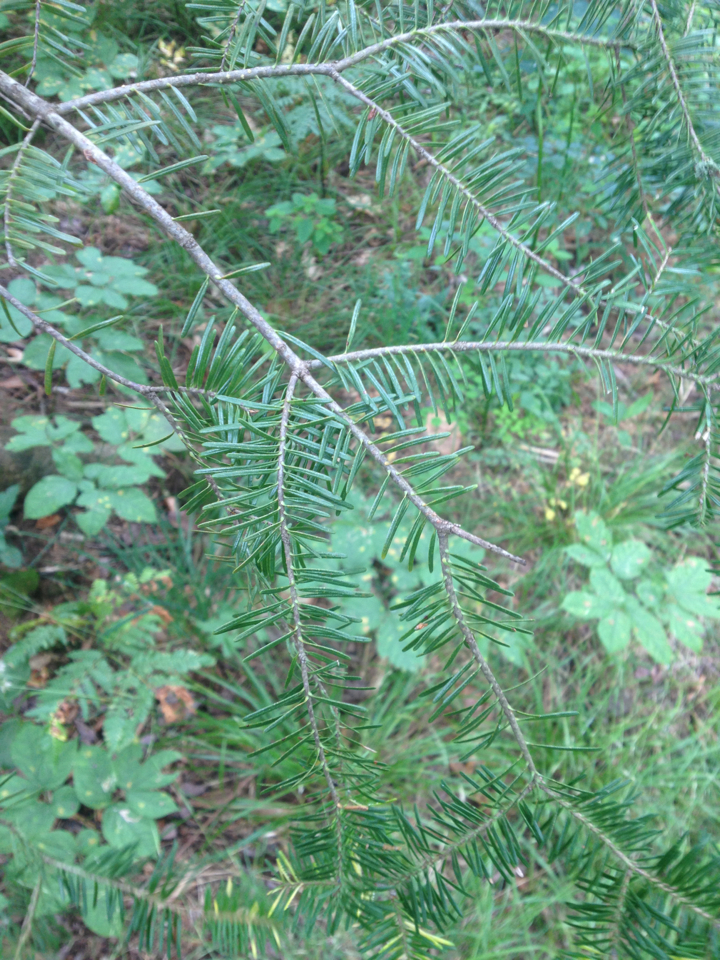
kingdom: Plantae
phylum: Tracheophyta
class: Pinopsida
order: Pinales
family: Pinaceae
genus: Abies
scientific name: Abies balsamea
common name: Balsam fir
